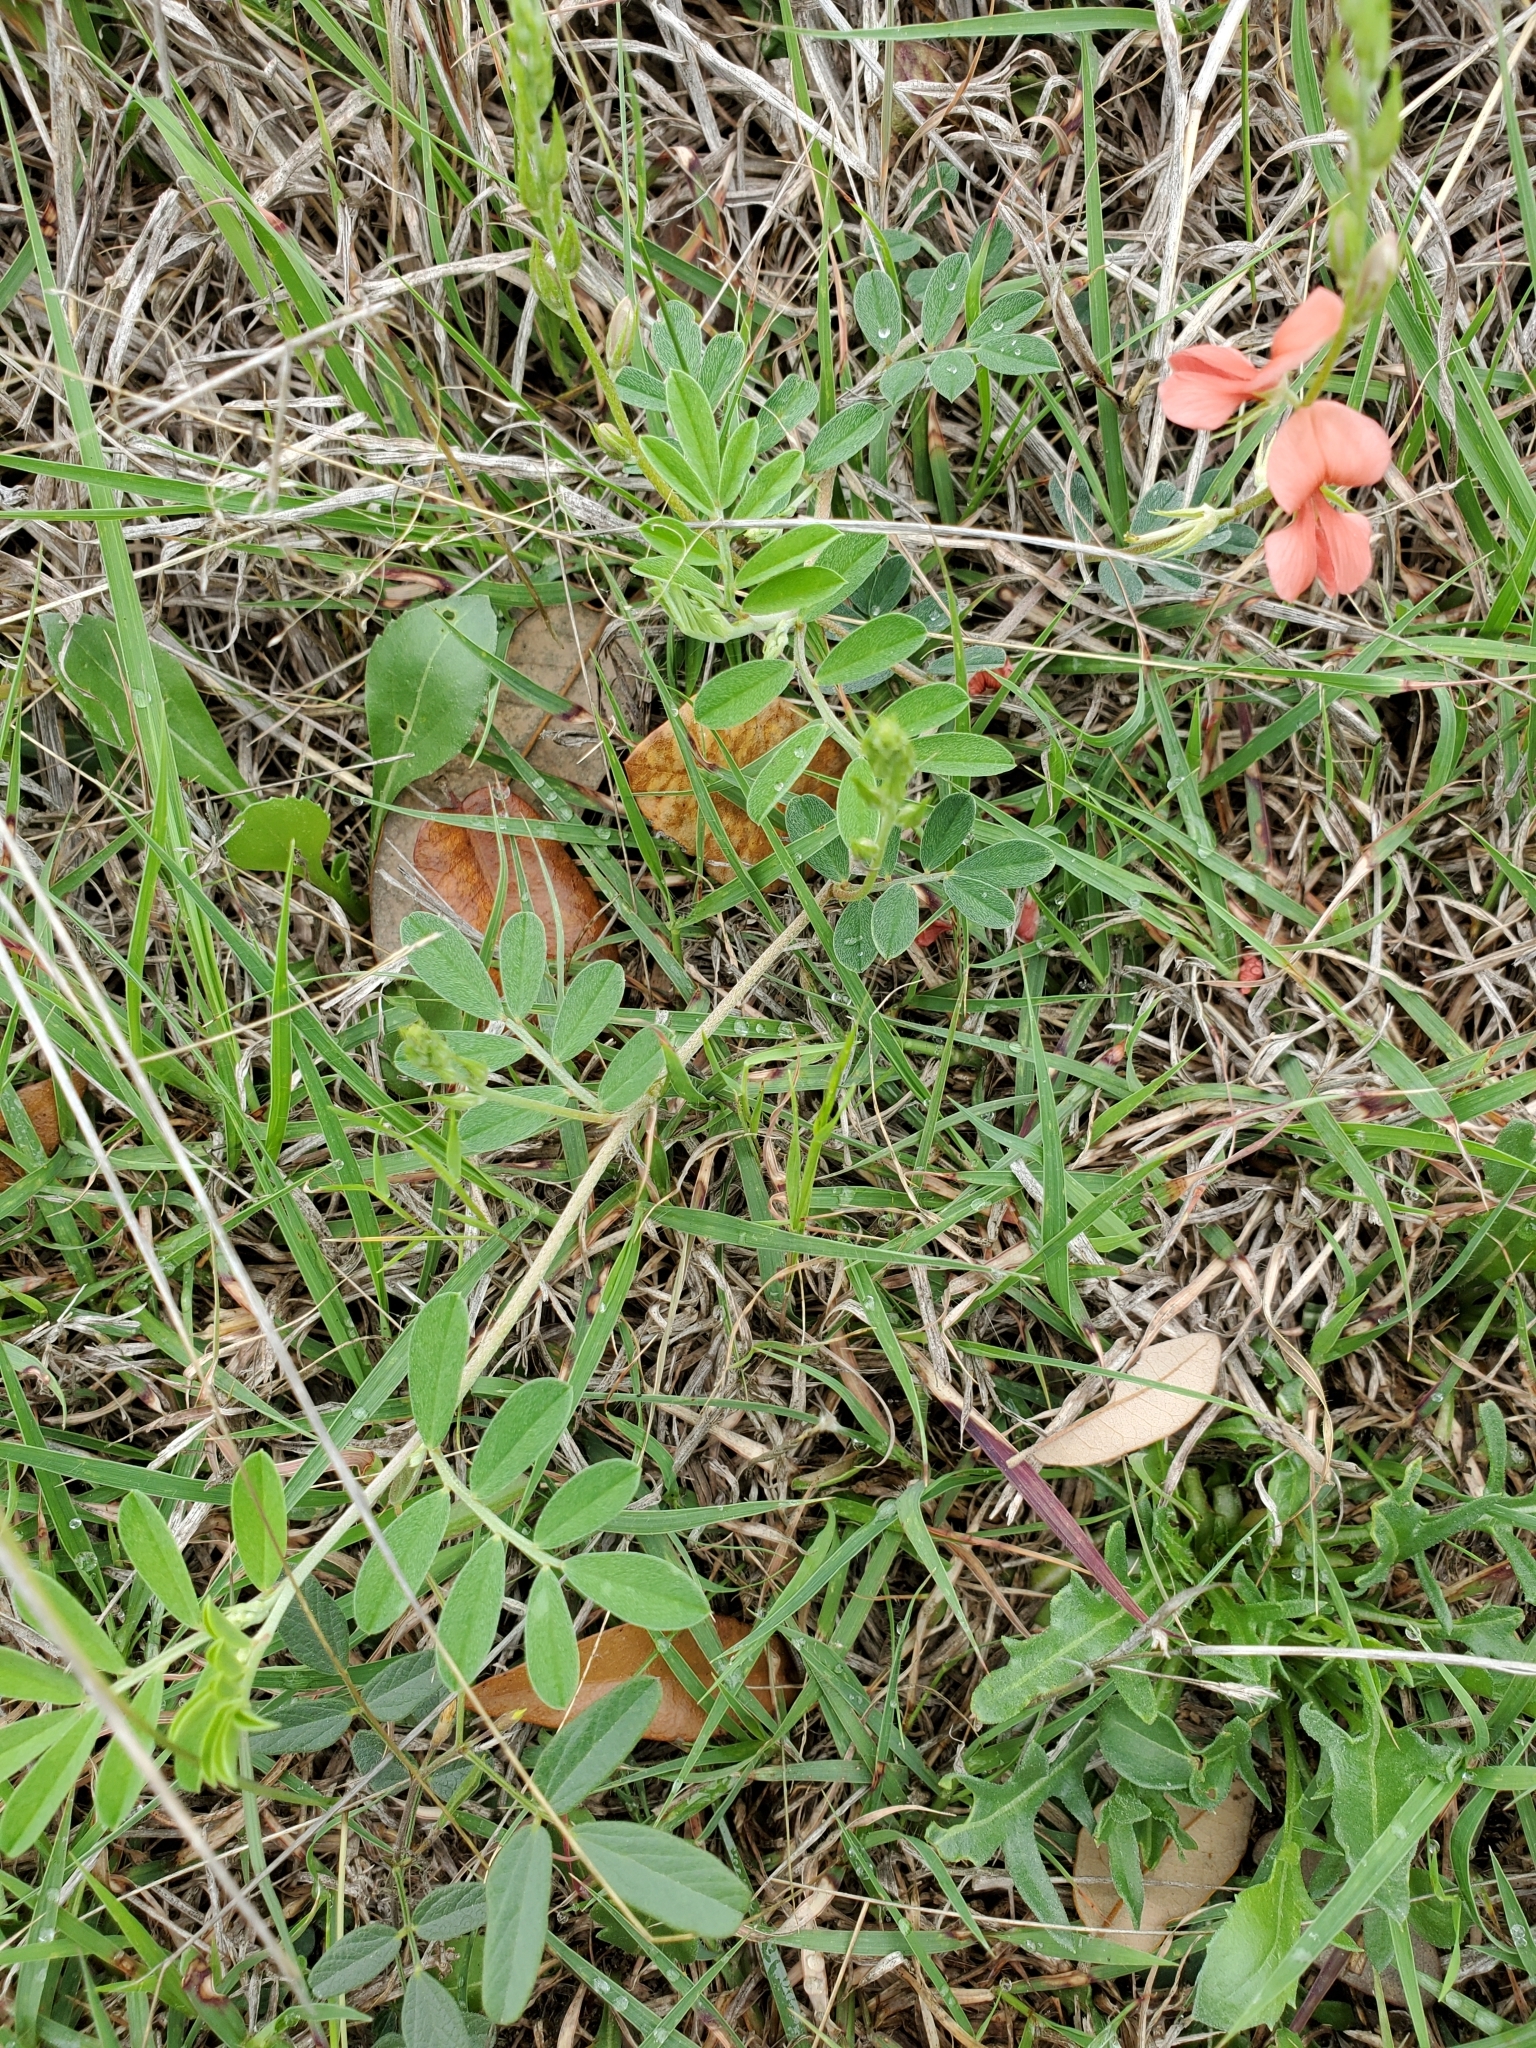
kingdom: Plantae
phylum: Tracheophyta
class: Magnoliopsida
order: Fabales
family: Fabaceae
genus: Indigofera
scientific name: Indigofera miniata
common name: Coast indigo
